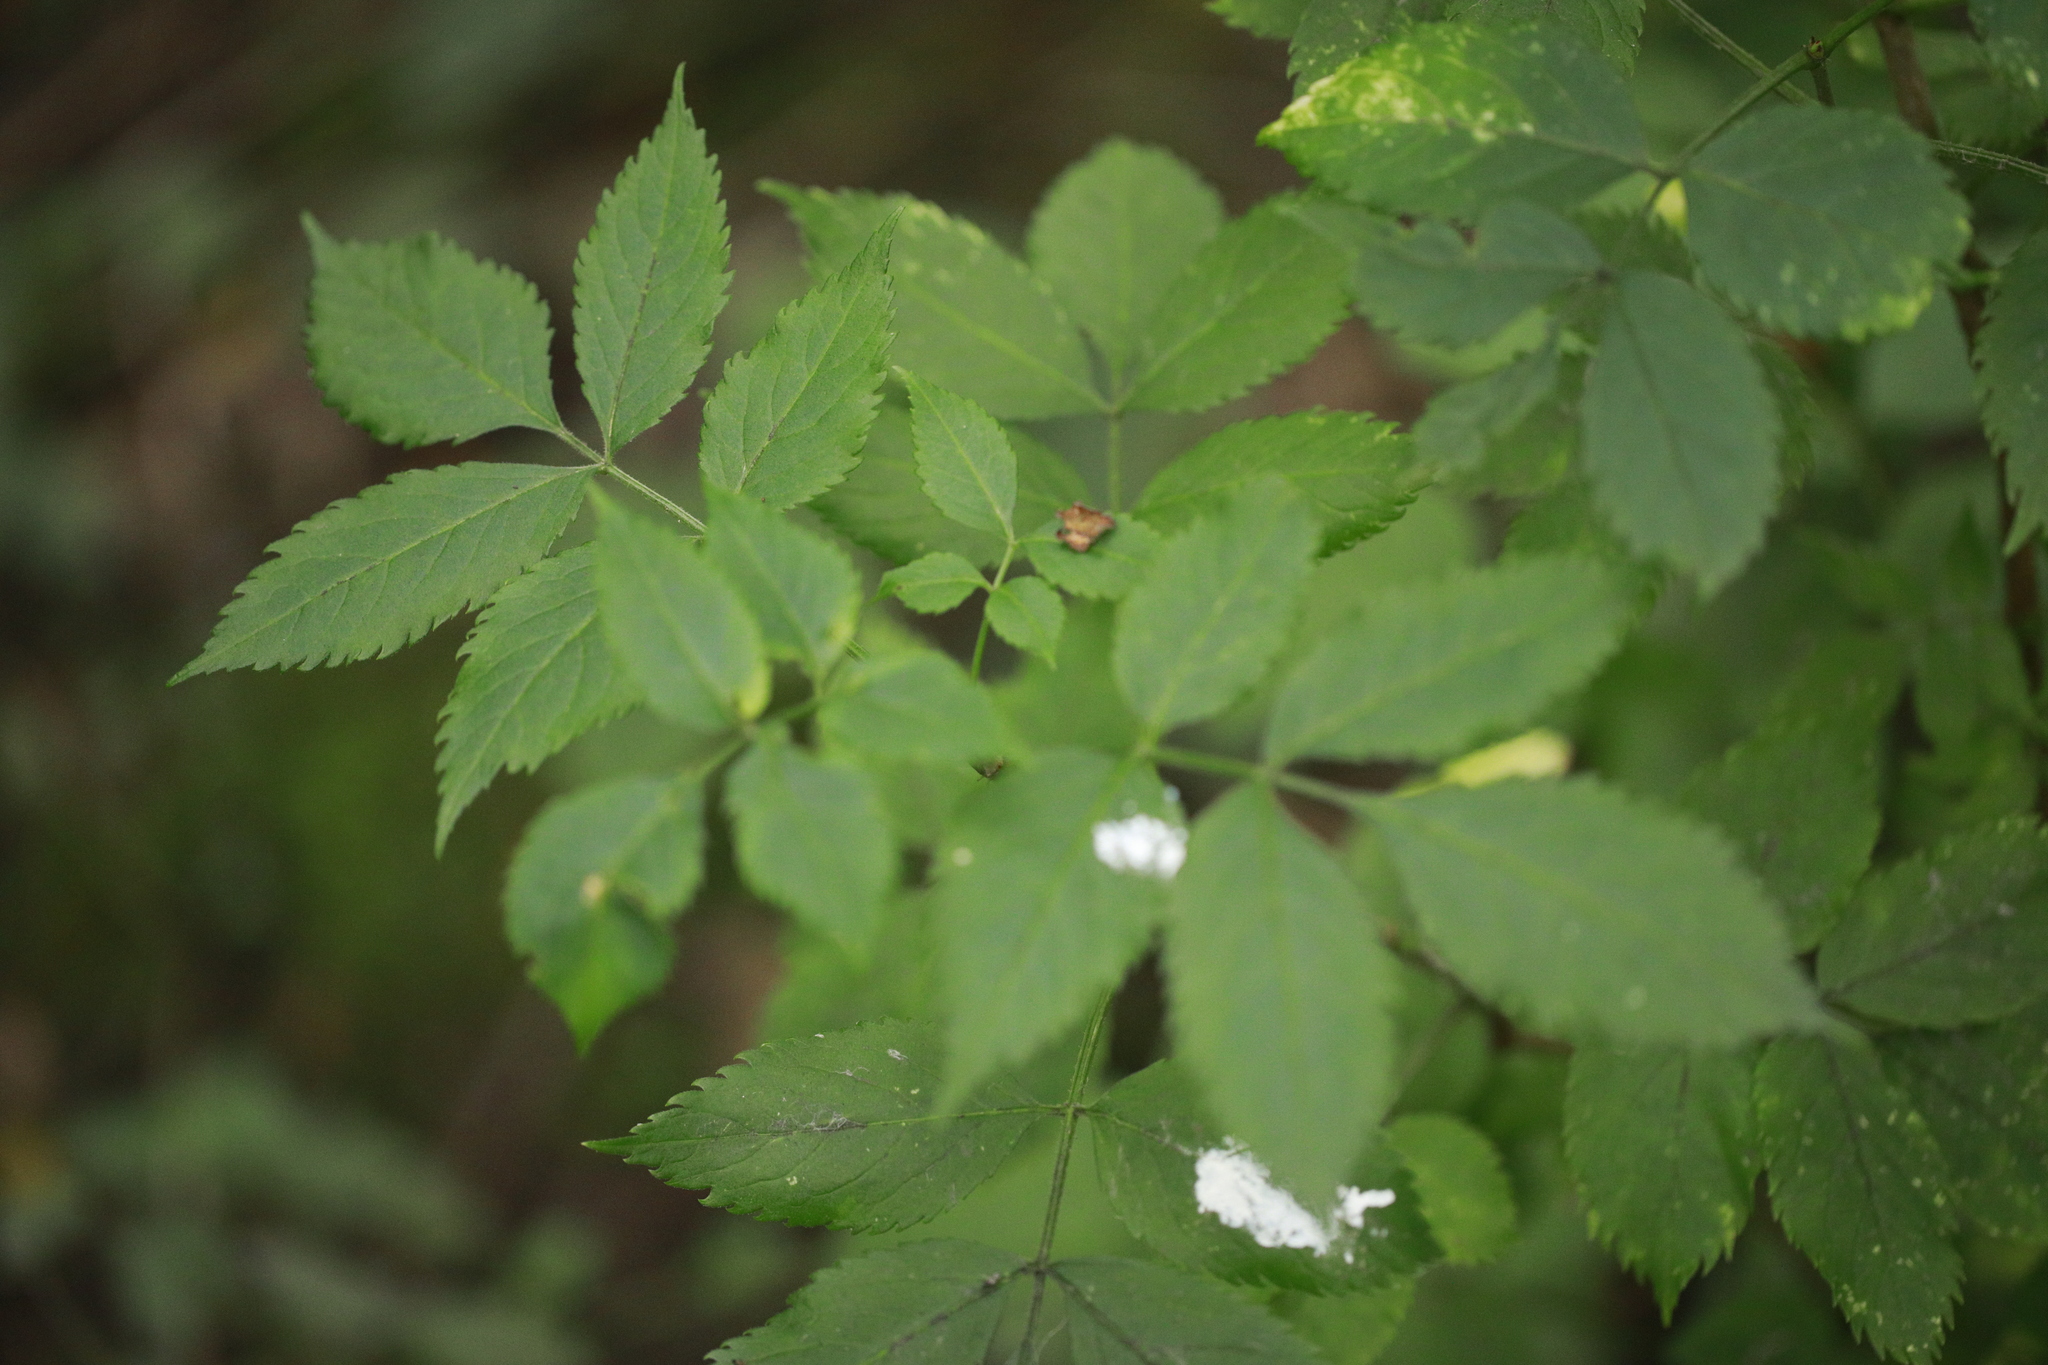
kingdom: Plantae
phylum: Tracheophyta
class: Magnoliopsida
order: Dipsacales
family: Viburnaceae
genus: Sambucus
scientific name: Sambucus nigra
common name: Elder
